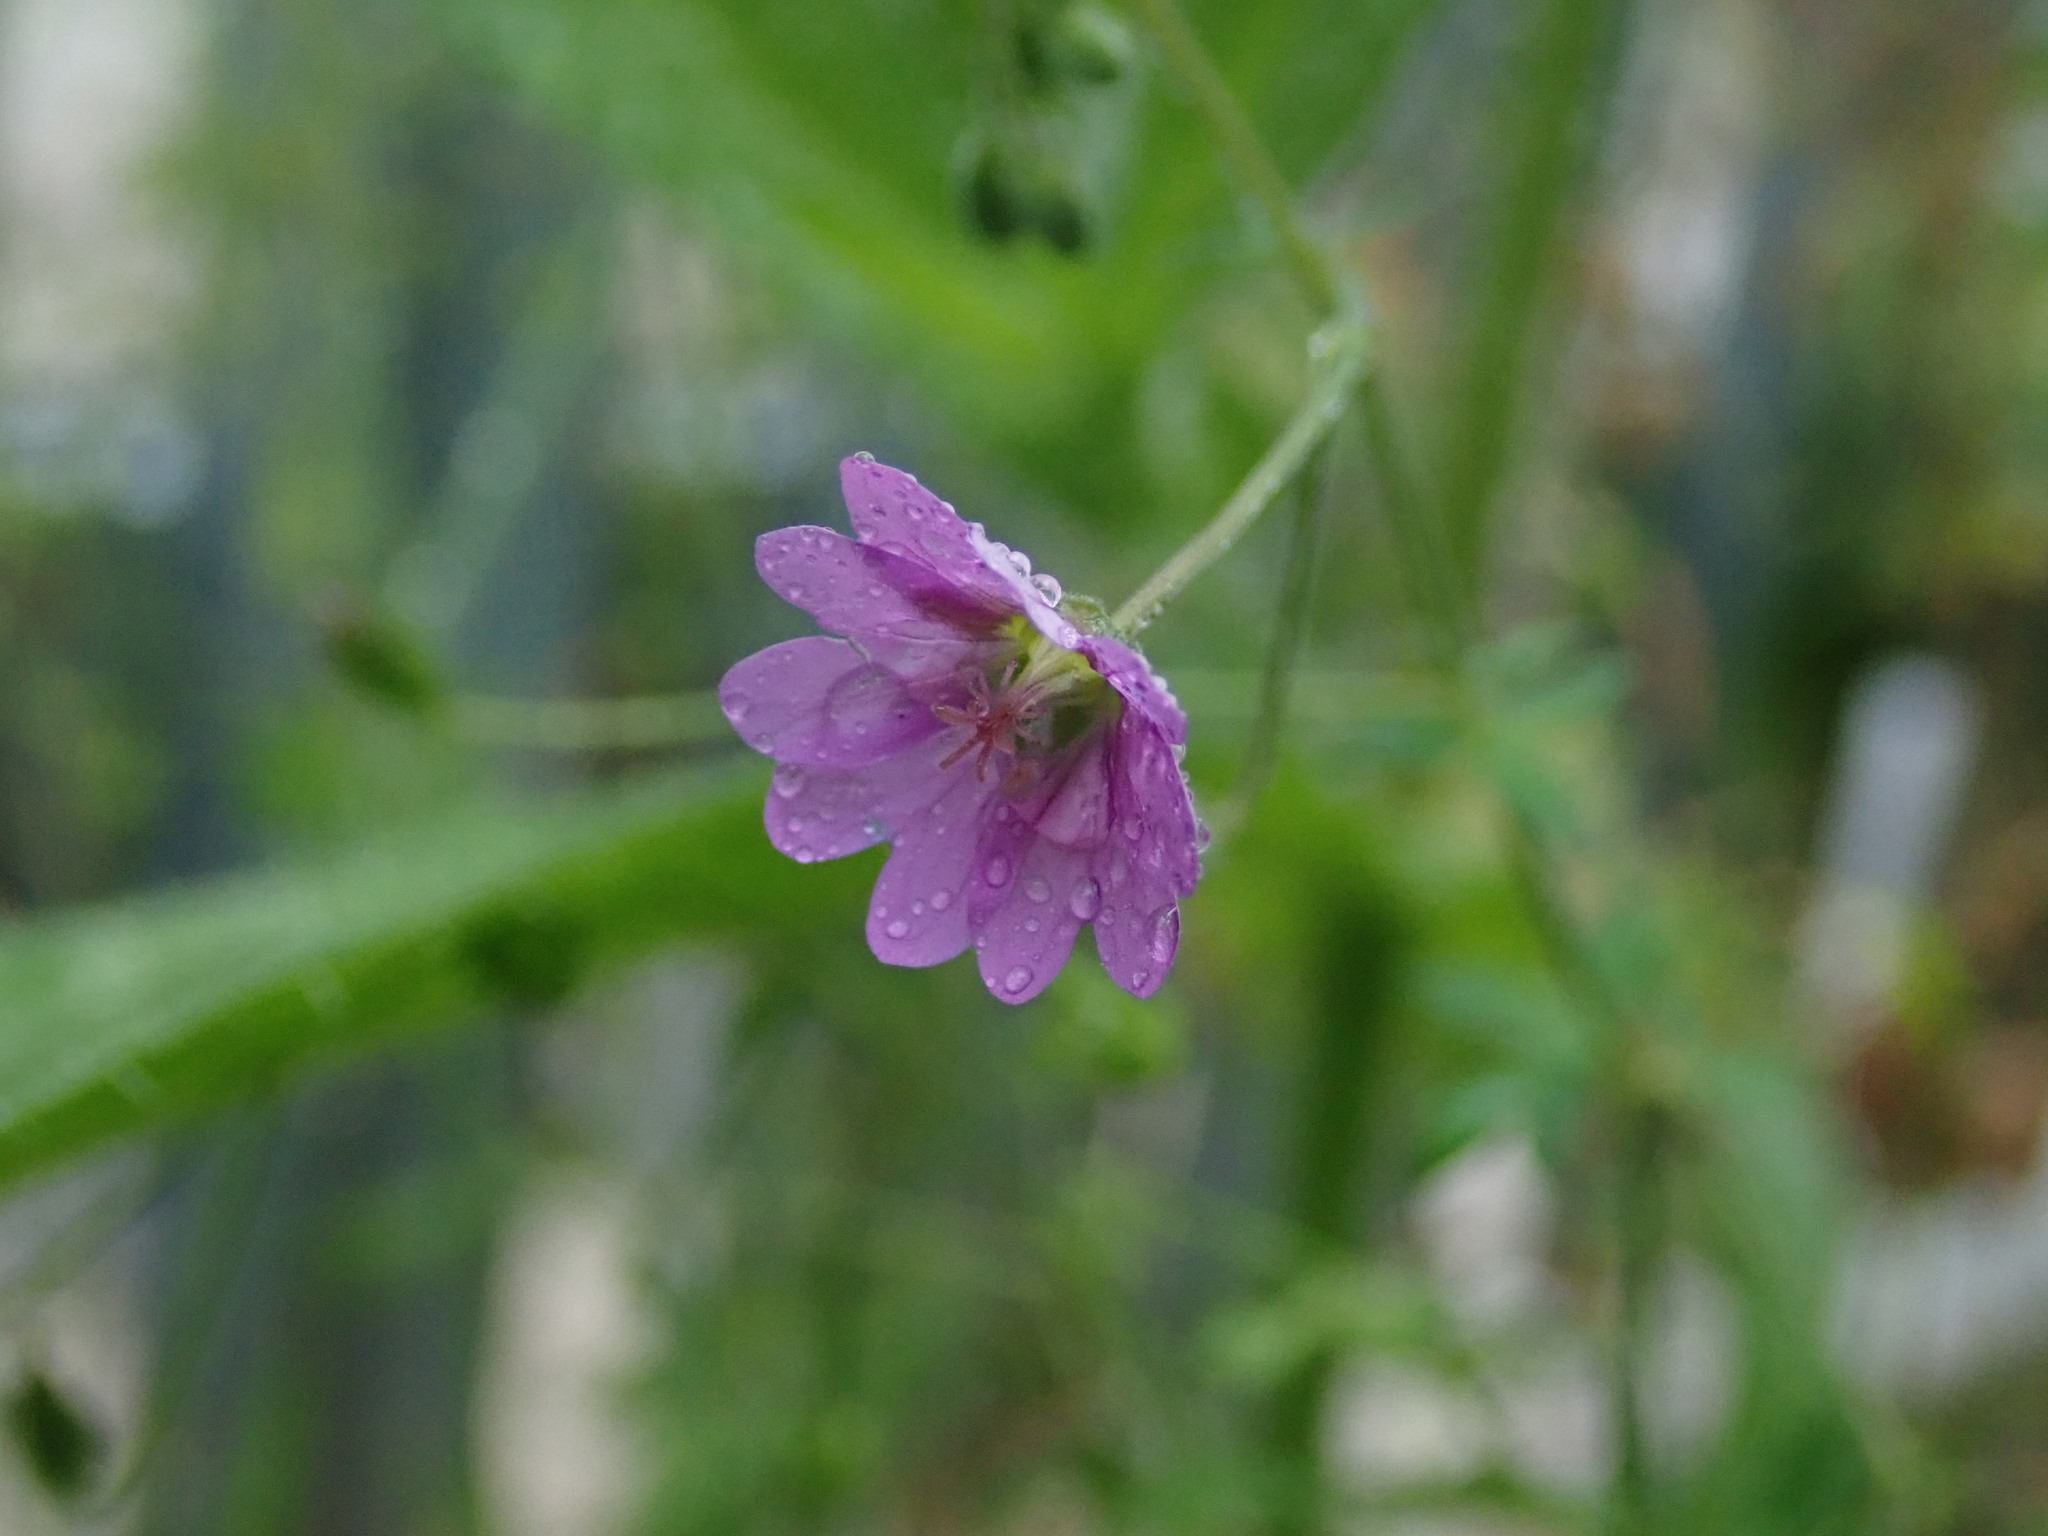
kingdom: Plantae
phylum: Tracheophyta
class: Magnoliopsida
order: Geraniales
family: Geraniaceae
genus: Geranium
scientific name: Geranium pyrenaicum
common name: Hedgerow crane's-bill
